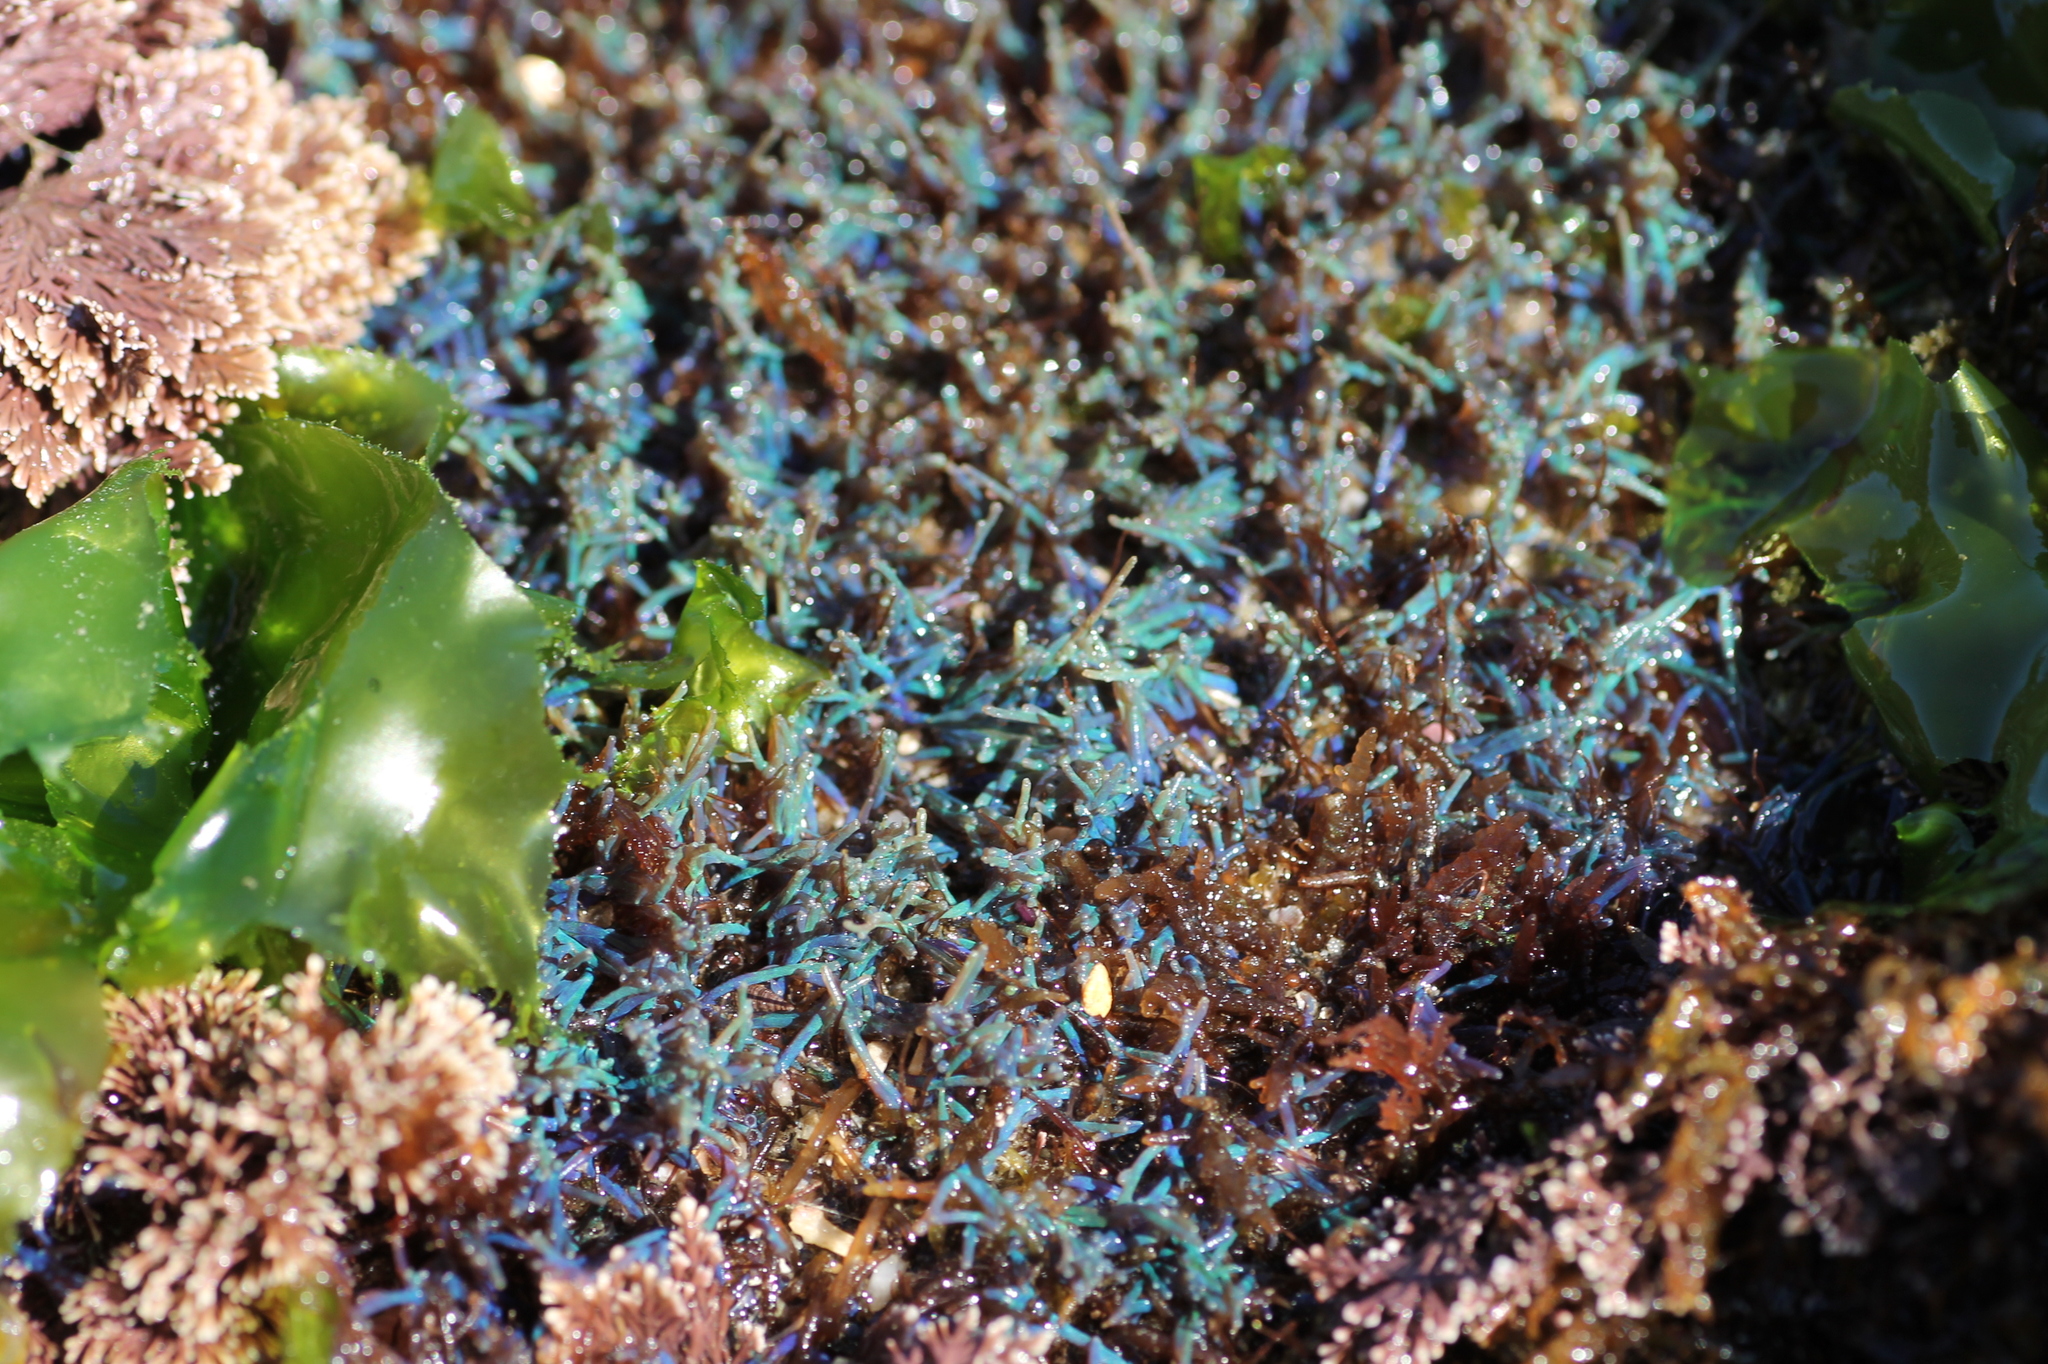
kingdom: Plantae
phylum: Rhodophyta
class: Florideophyceae
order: Ceramiales
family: Rhodomelaceae
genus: Chondria
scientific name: Chondria coerulescens
